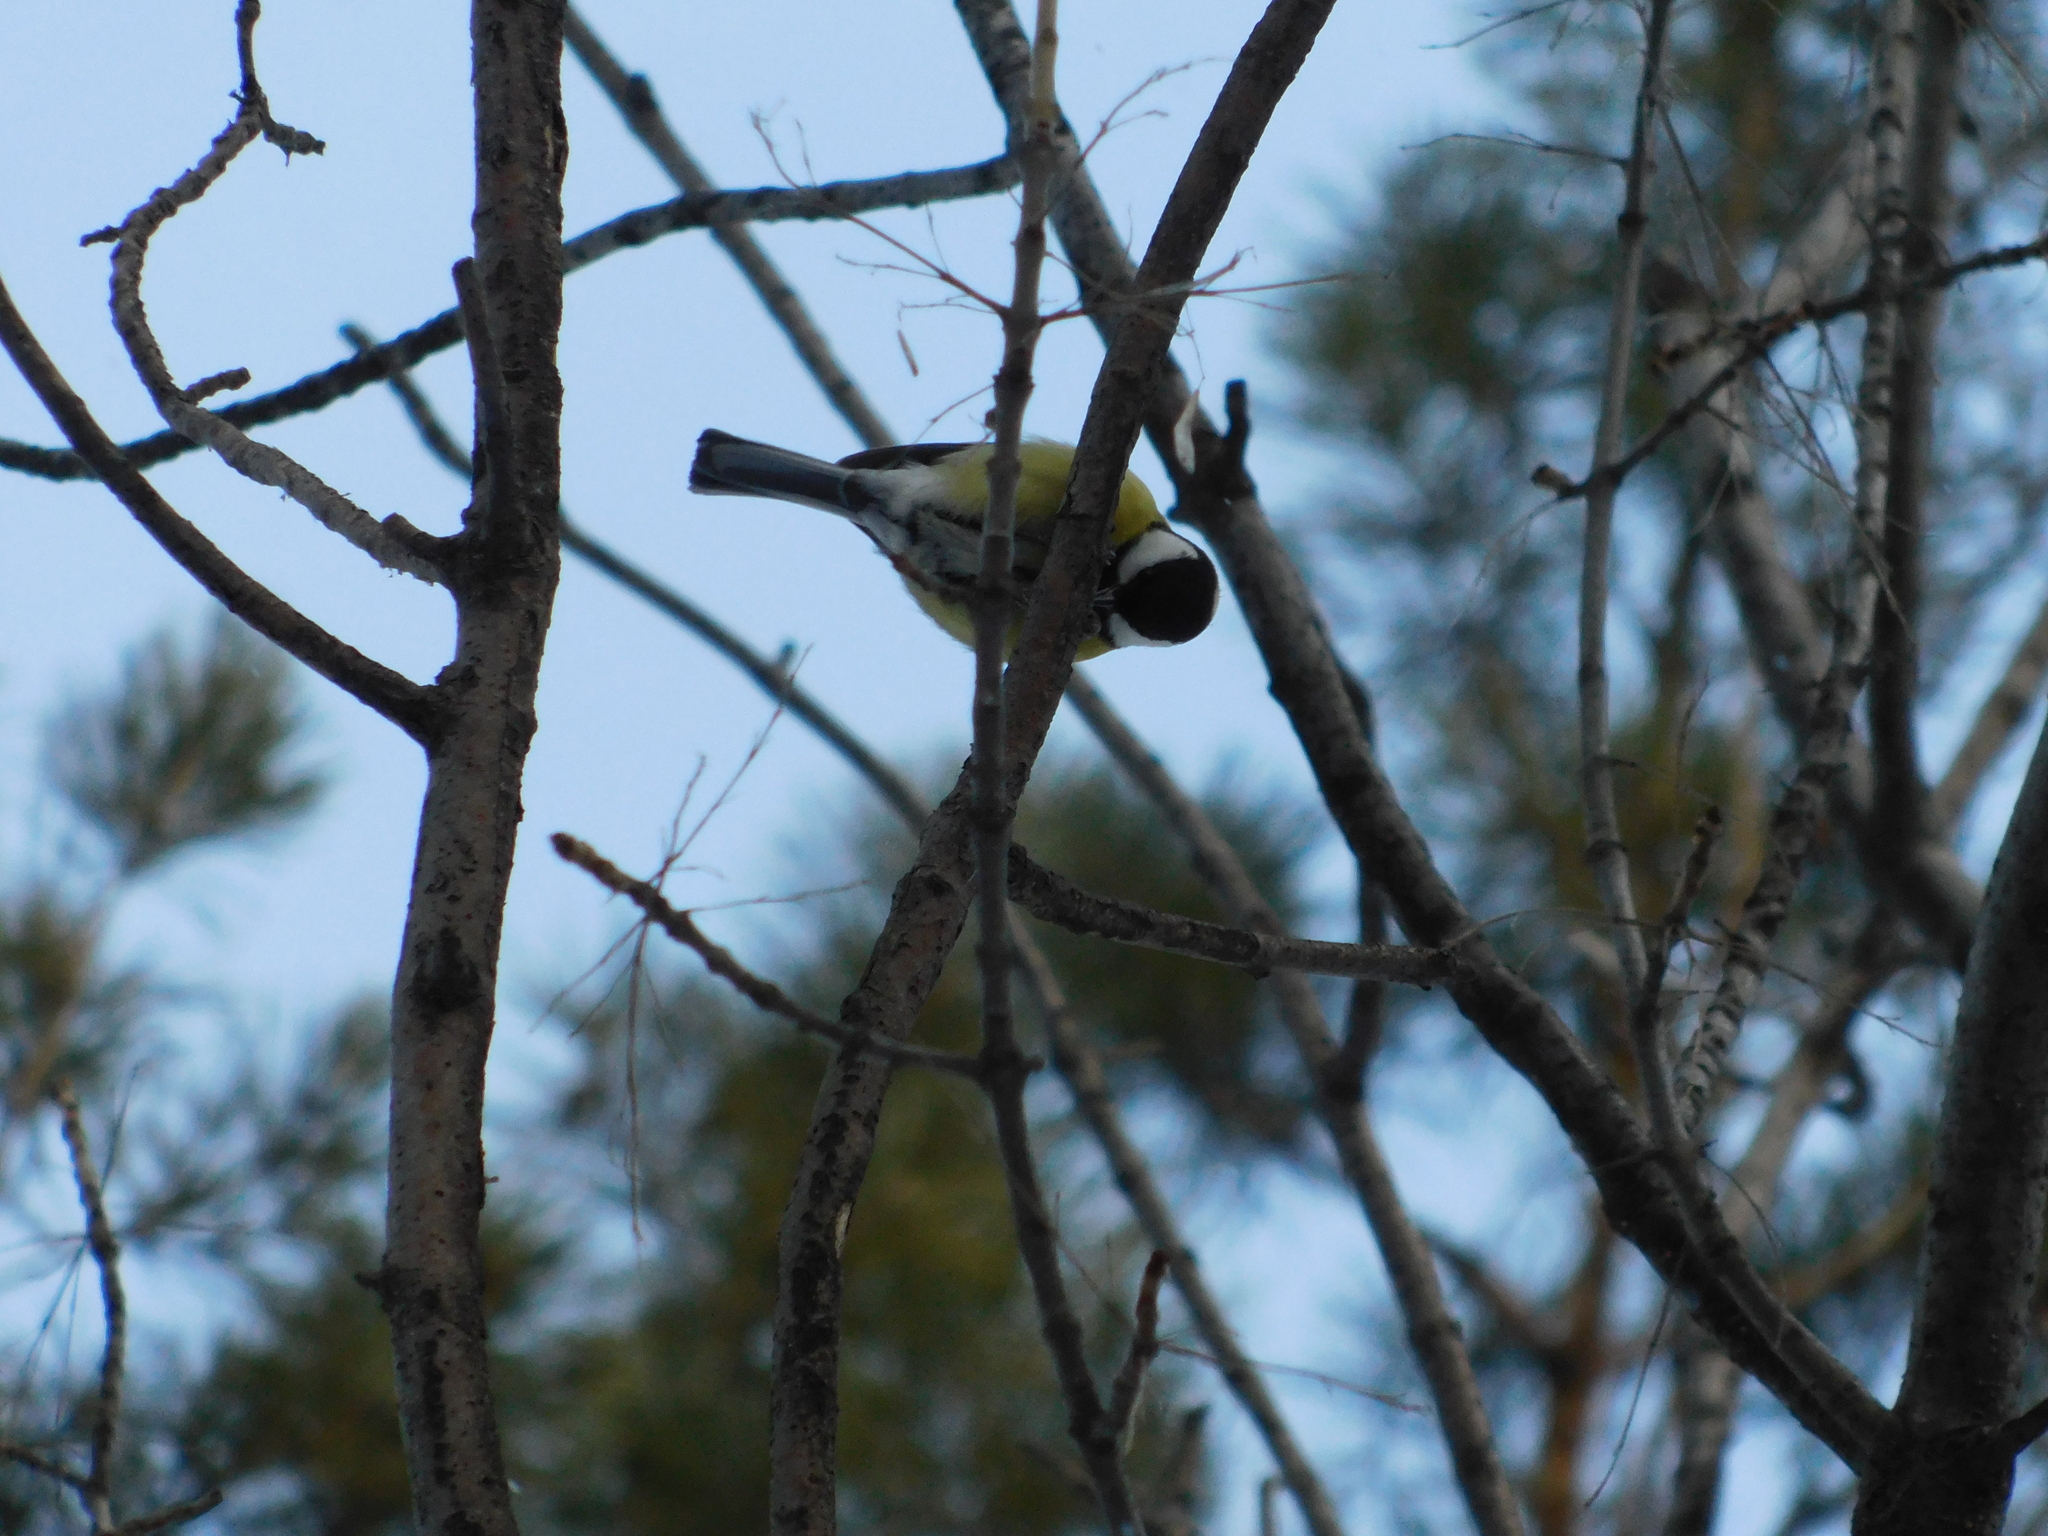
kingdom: Animalia
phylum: Chordata
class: Aves
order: Passeriformes
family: Paridae
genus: Parus
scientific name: Parus major
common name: Great tit
